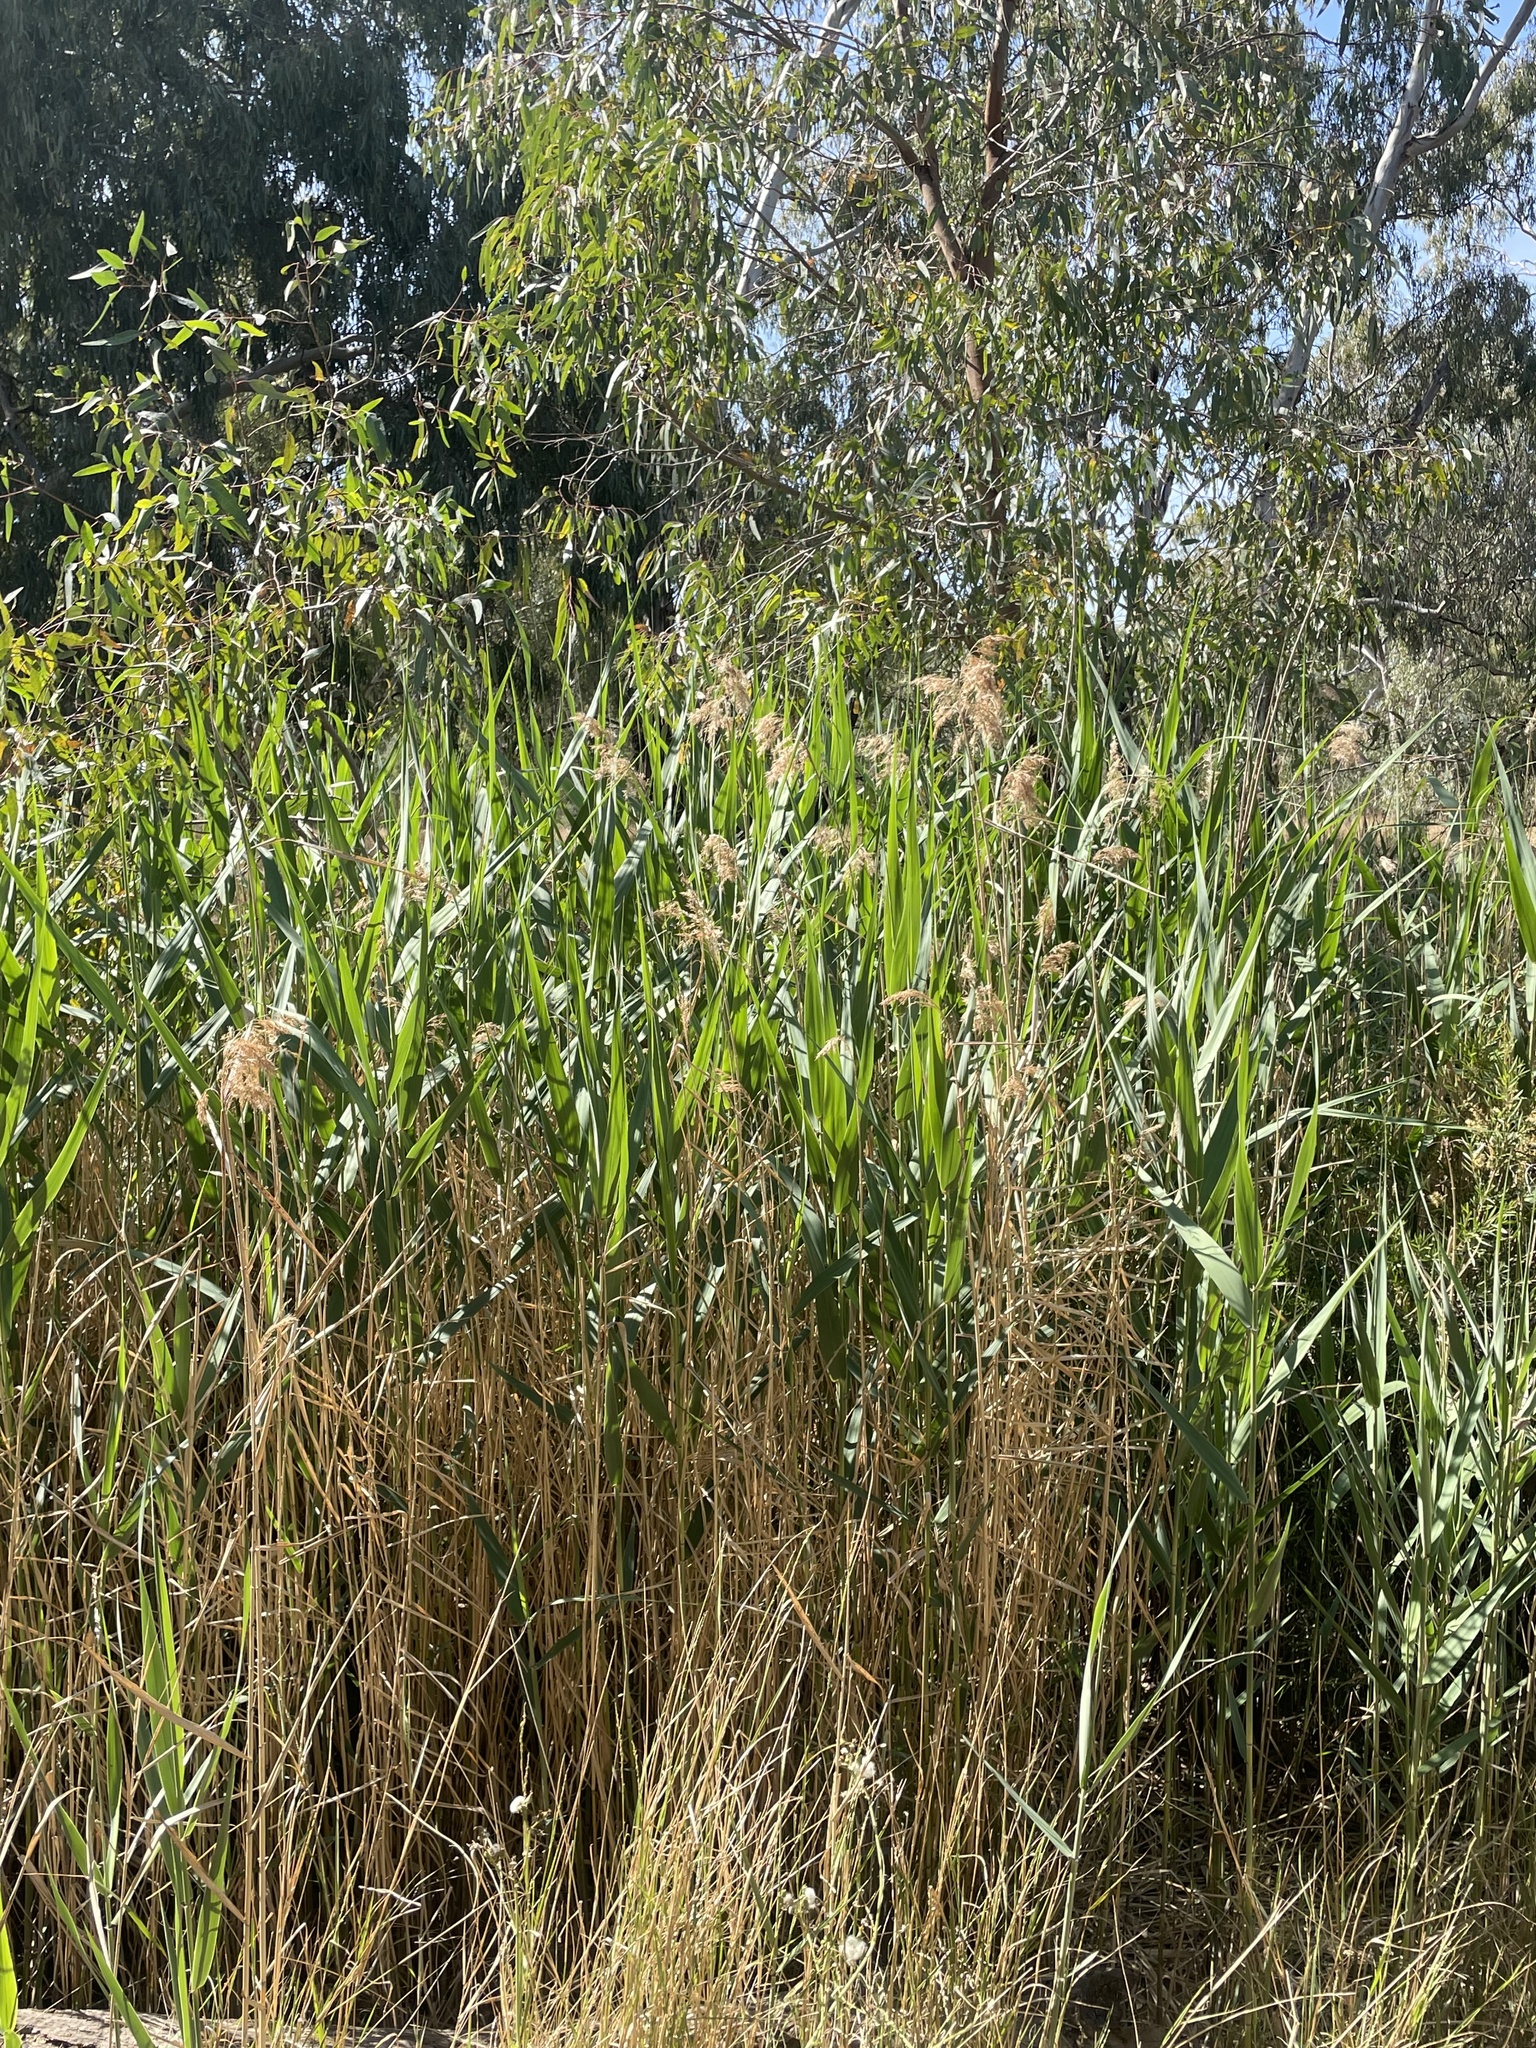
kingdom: Plantae
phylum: Tracheophyta
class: Liliopsida
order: Poales
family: Poaceae
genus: Phragmites
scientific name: Phragmites australis
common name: Common reed
